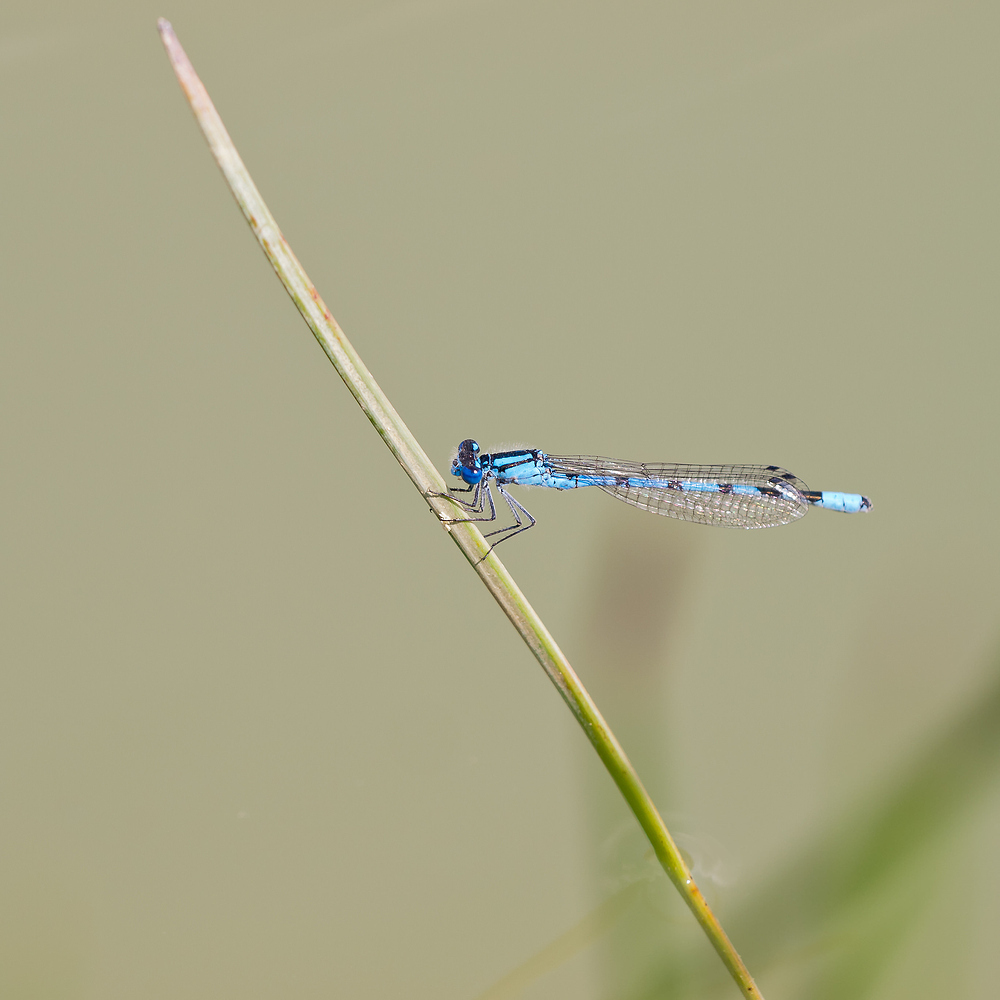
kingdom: Animalia
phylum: Arthropoda
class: Insecta
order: Odonata
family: Coenagrionidae
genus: Enallagma
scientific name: Enallagma cyathigerum
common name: Common blue damselfly
